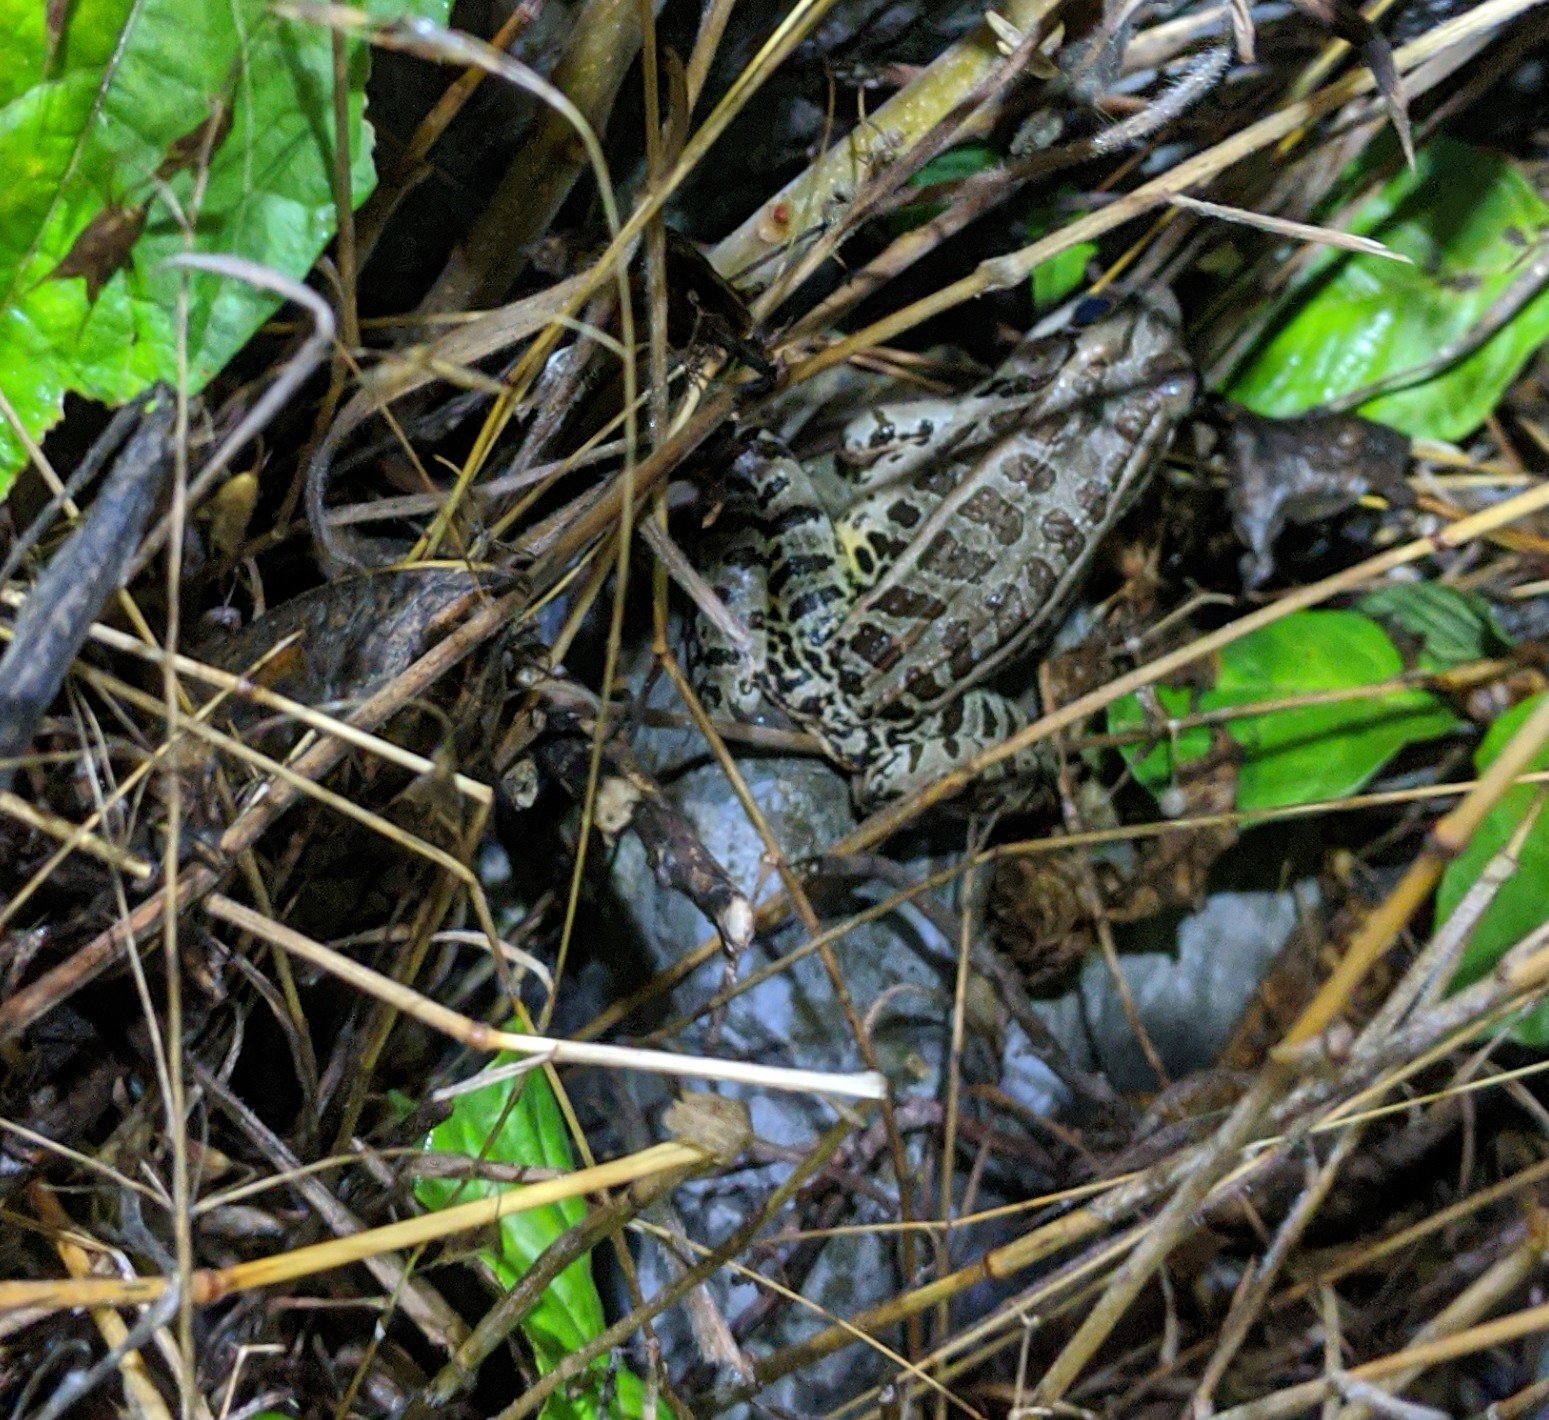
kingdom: Animalia
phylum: Chordata
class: Amphibia
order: Anura
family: Ranidae
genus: Lithobates
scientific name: Lithobates palustris
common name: Pickerel frog
